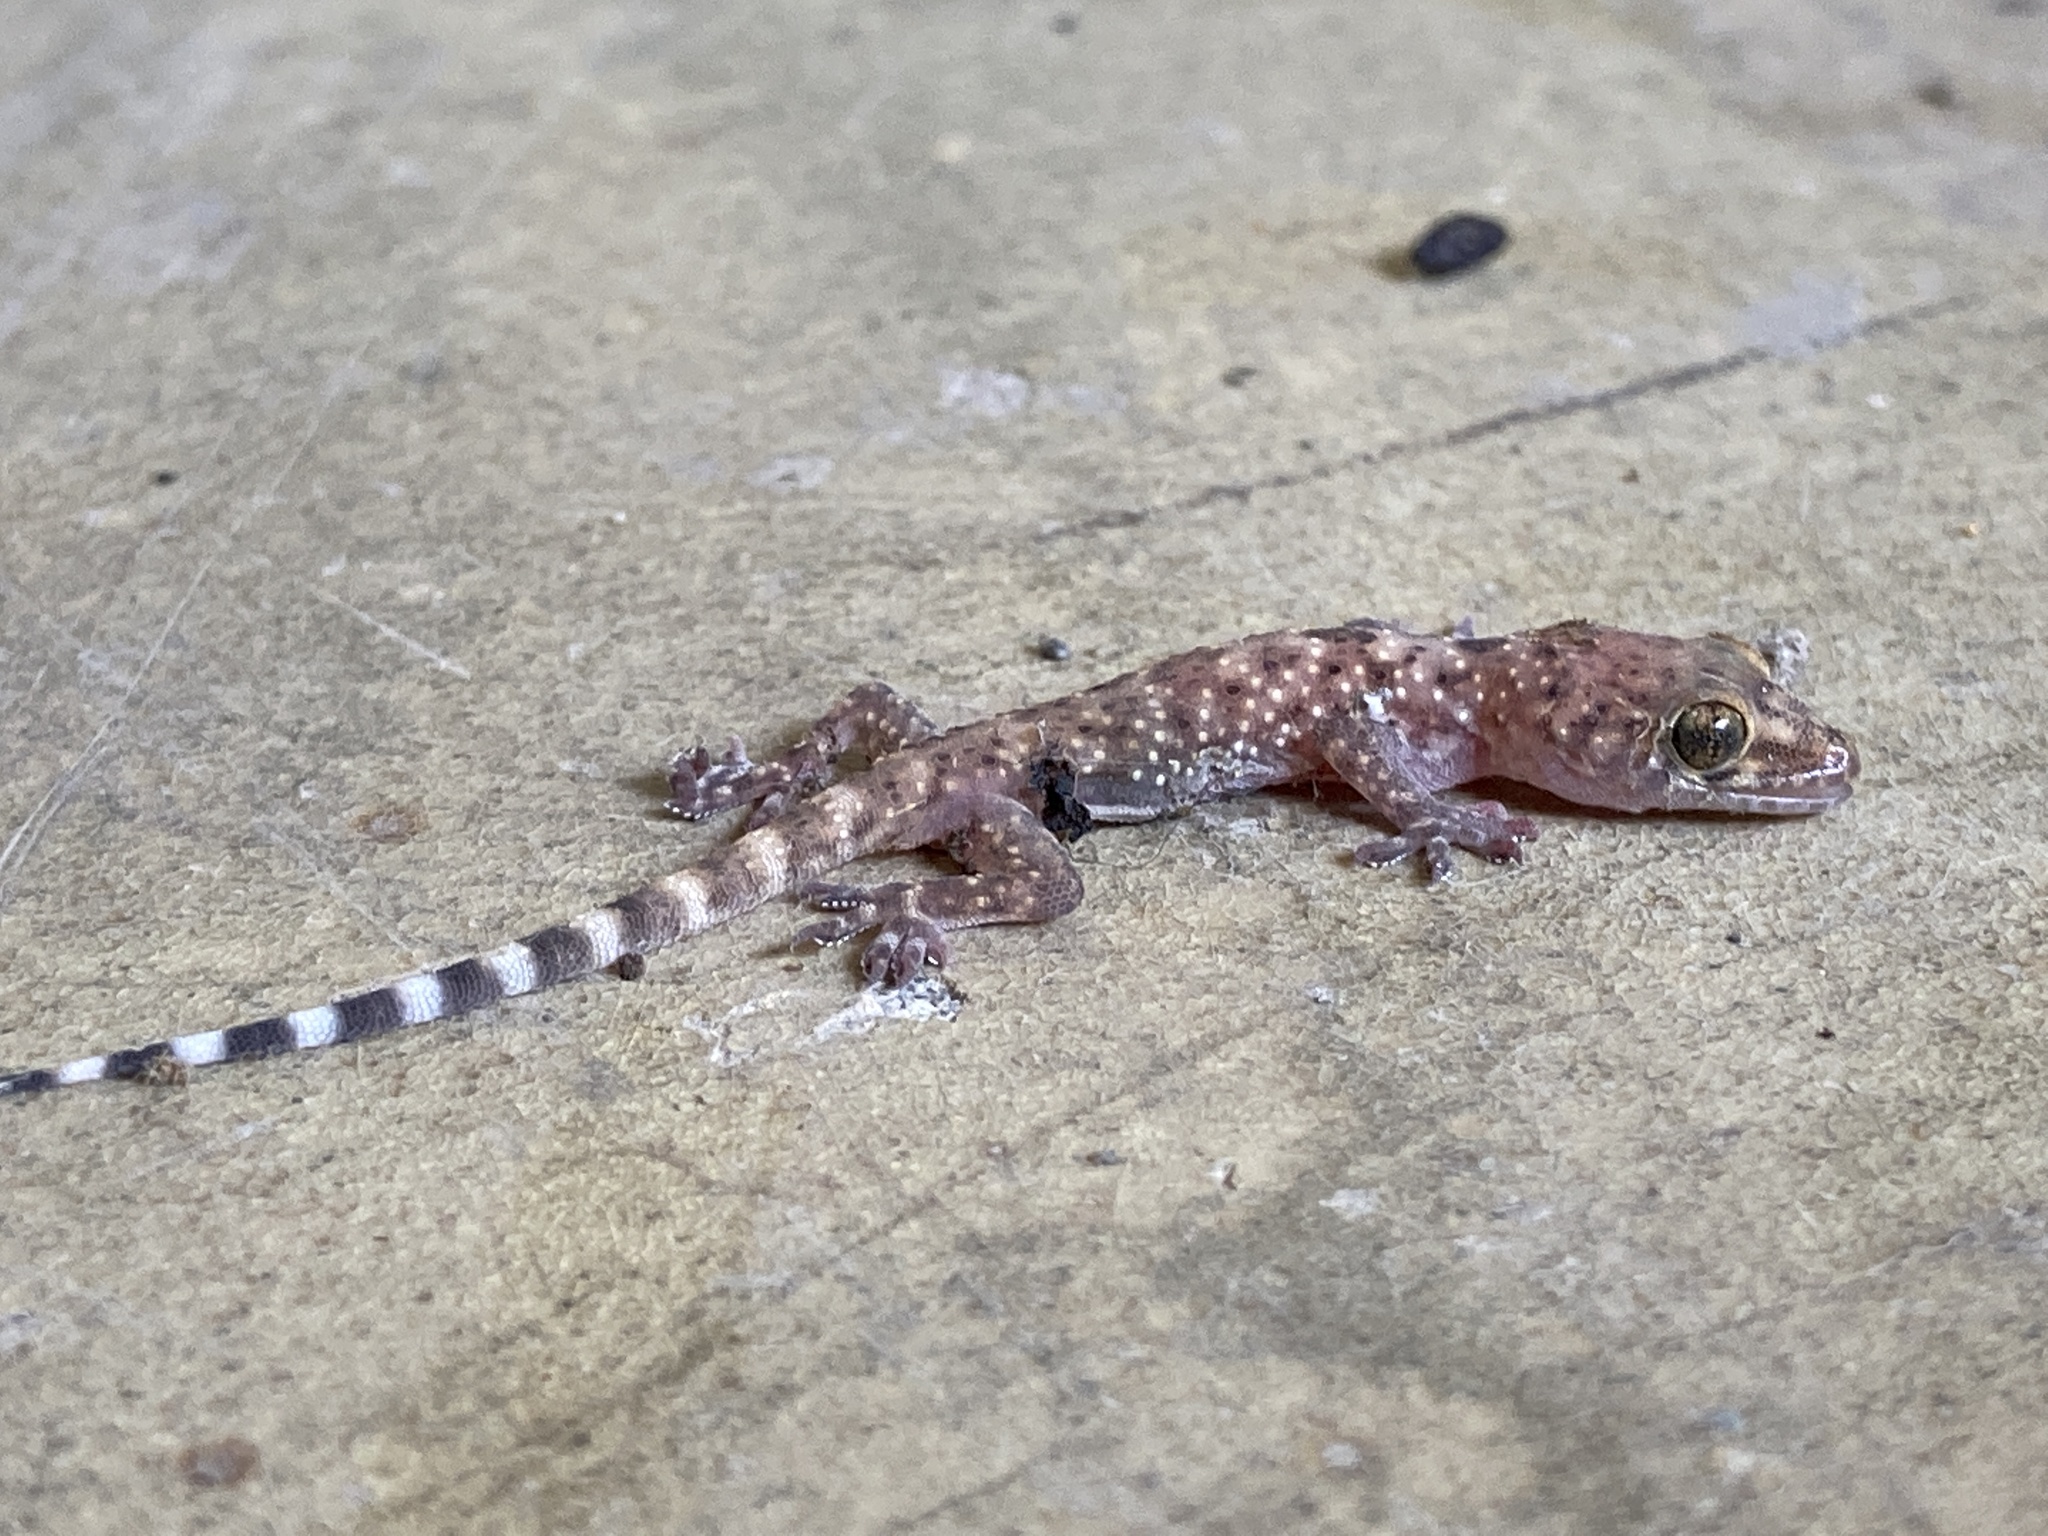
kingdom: Animalia
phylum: Chordata
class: Squamata
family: Gekkonidae
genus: Hemidactylus
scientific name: Hemidactylus turcicus
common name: Turkish gecko
